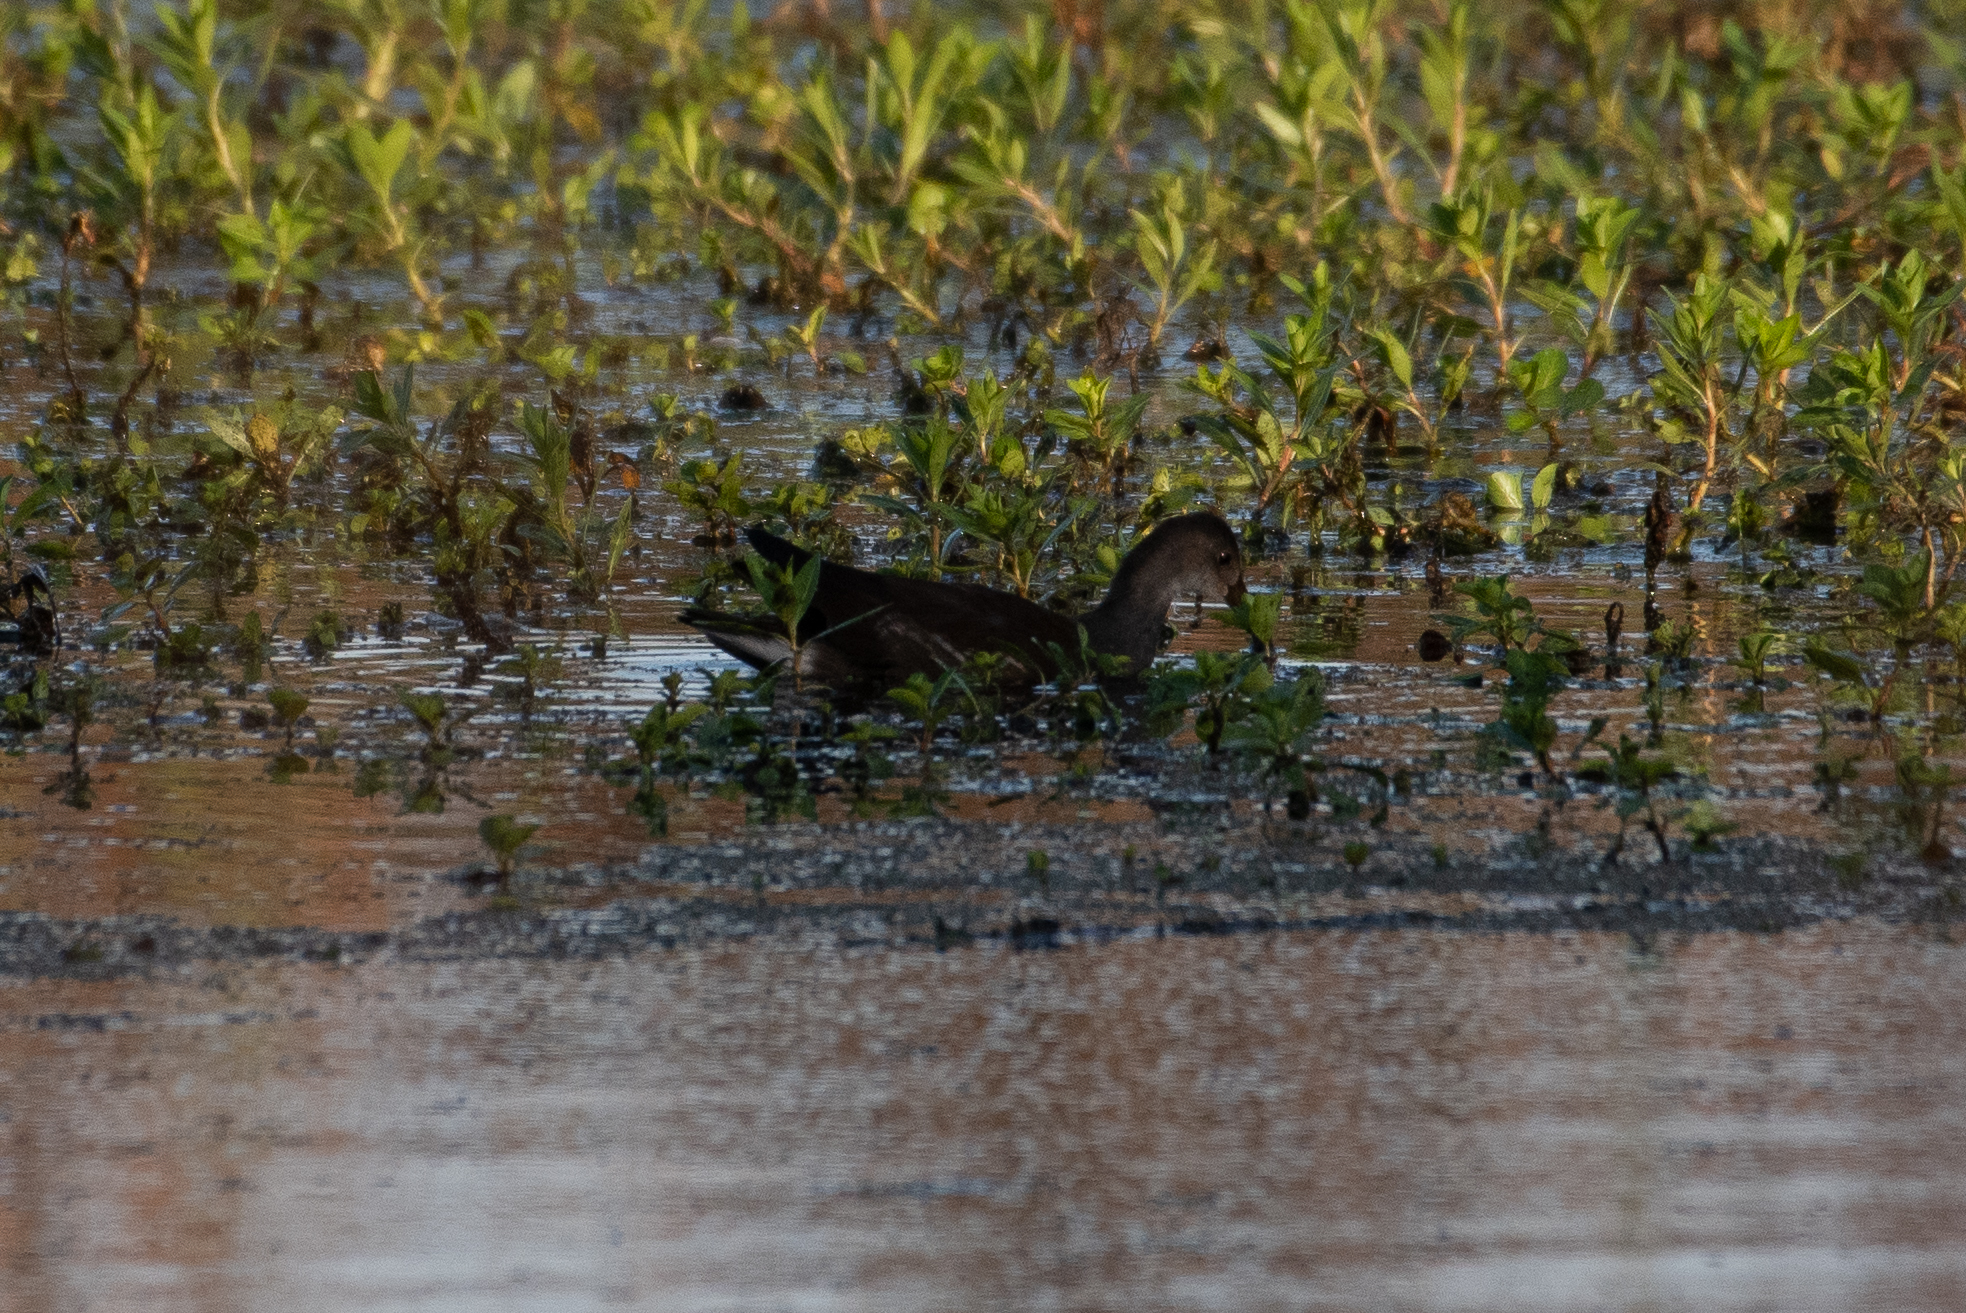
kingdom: Animalia
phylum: Chordata
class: Aves
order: Gruiformes
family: Rallidae
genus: Gallinula
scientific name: Gallinula chloropus
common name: Common moorhen
